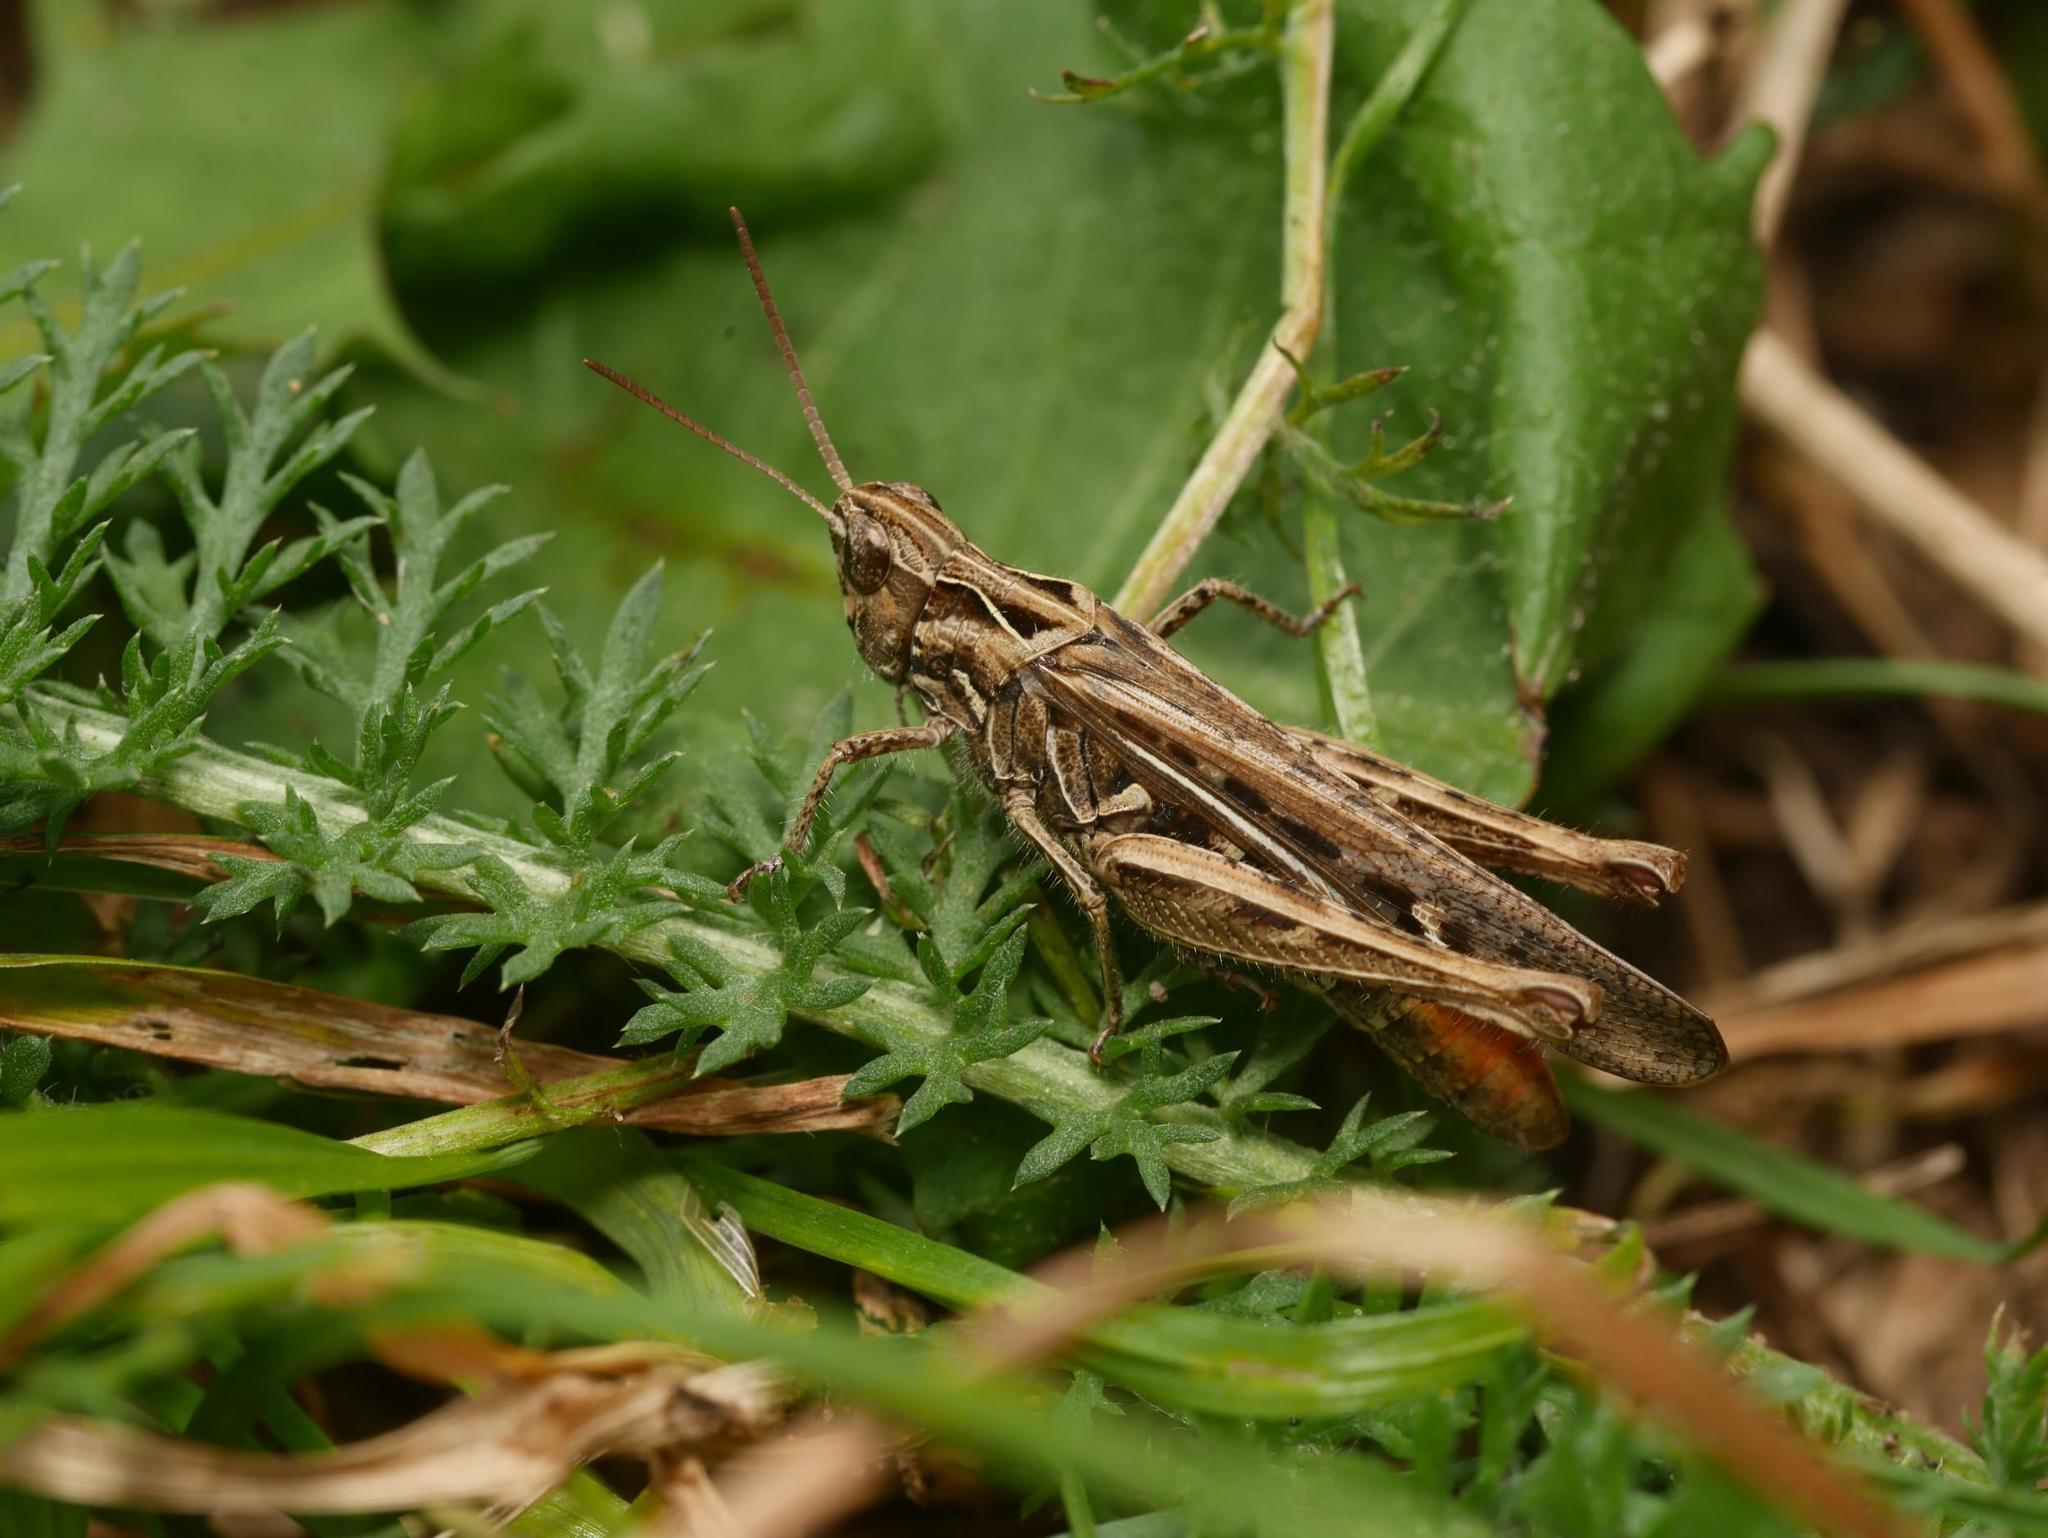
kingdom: Animalia
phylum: Arthropoda
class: Insecta
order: Orthoptera
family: Acrididae
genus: Chorthippus
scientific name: Chorthippus brunneus
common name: Field grasshopper
